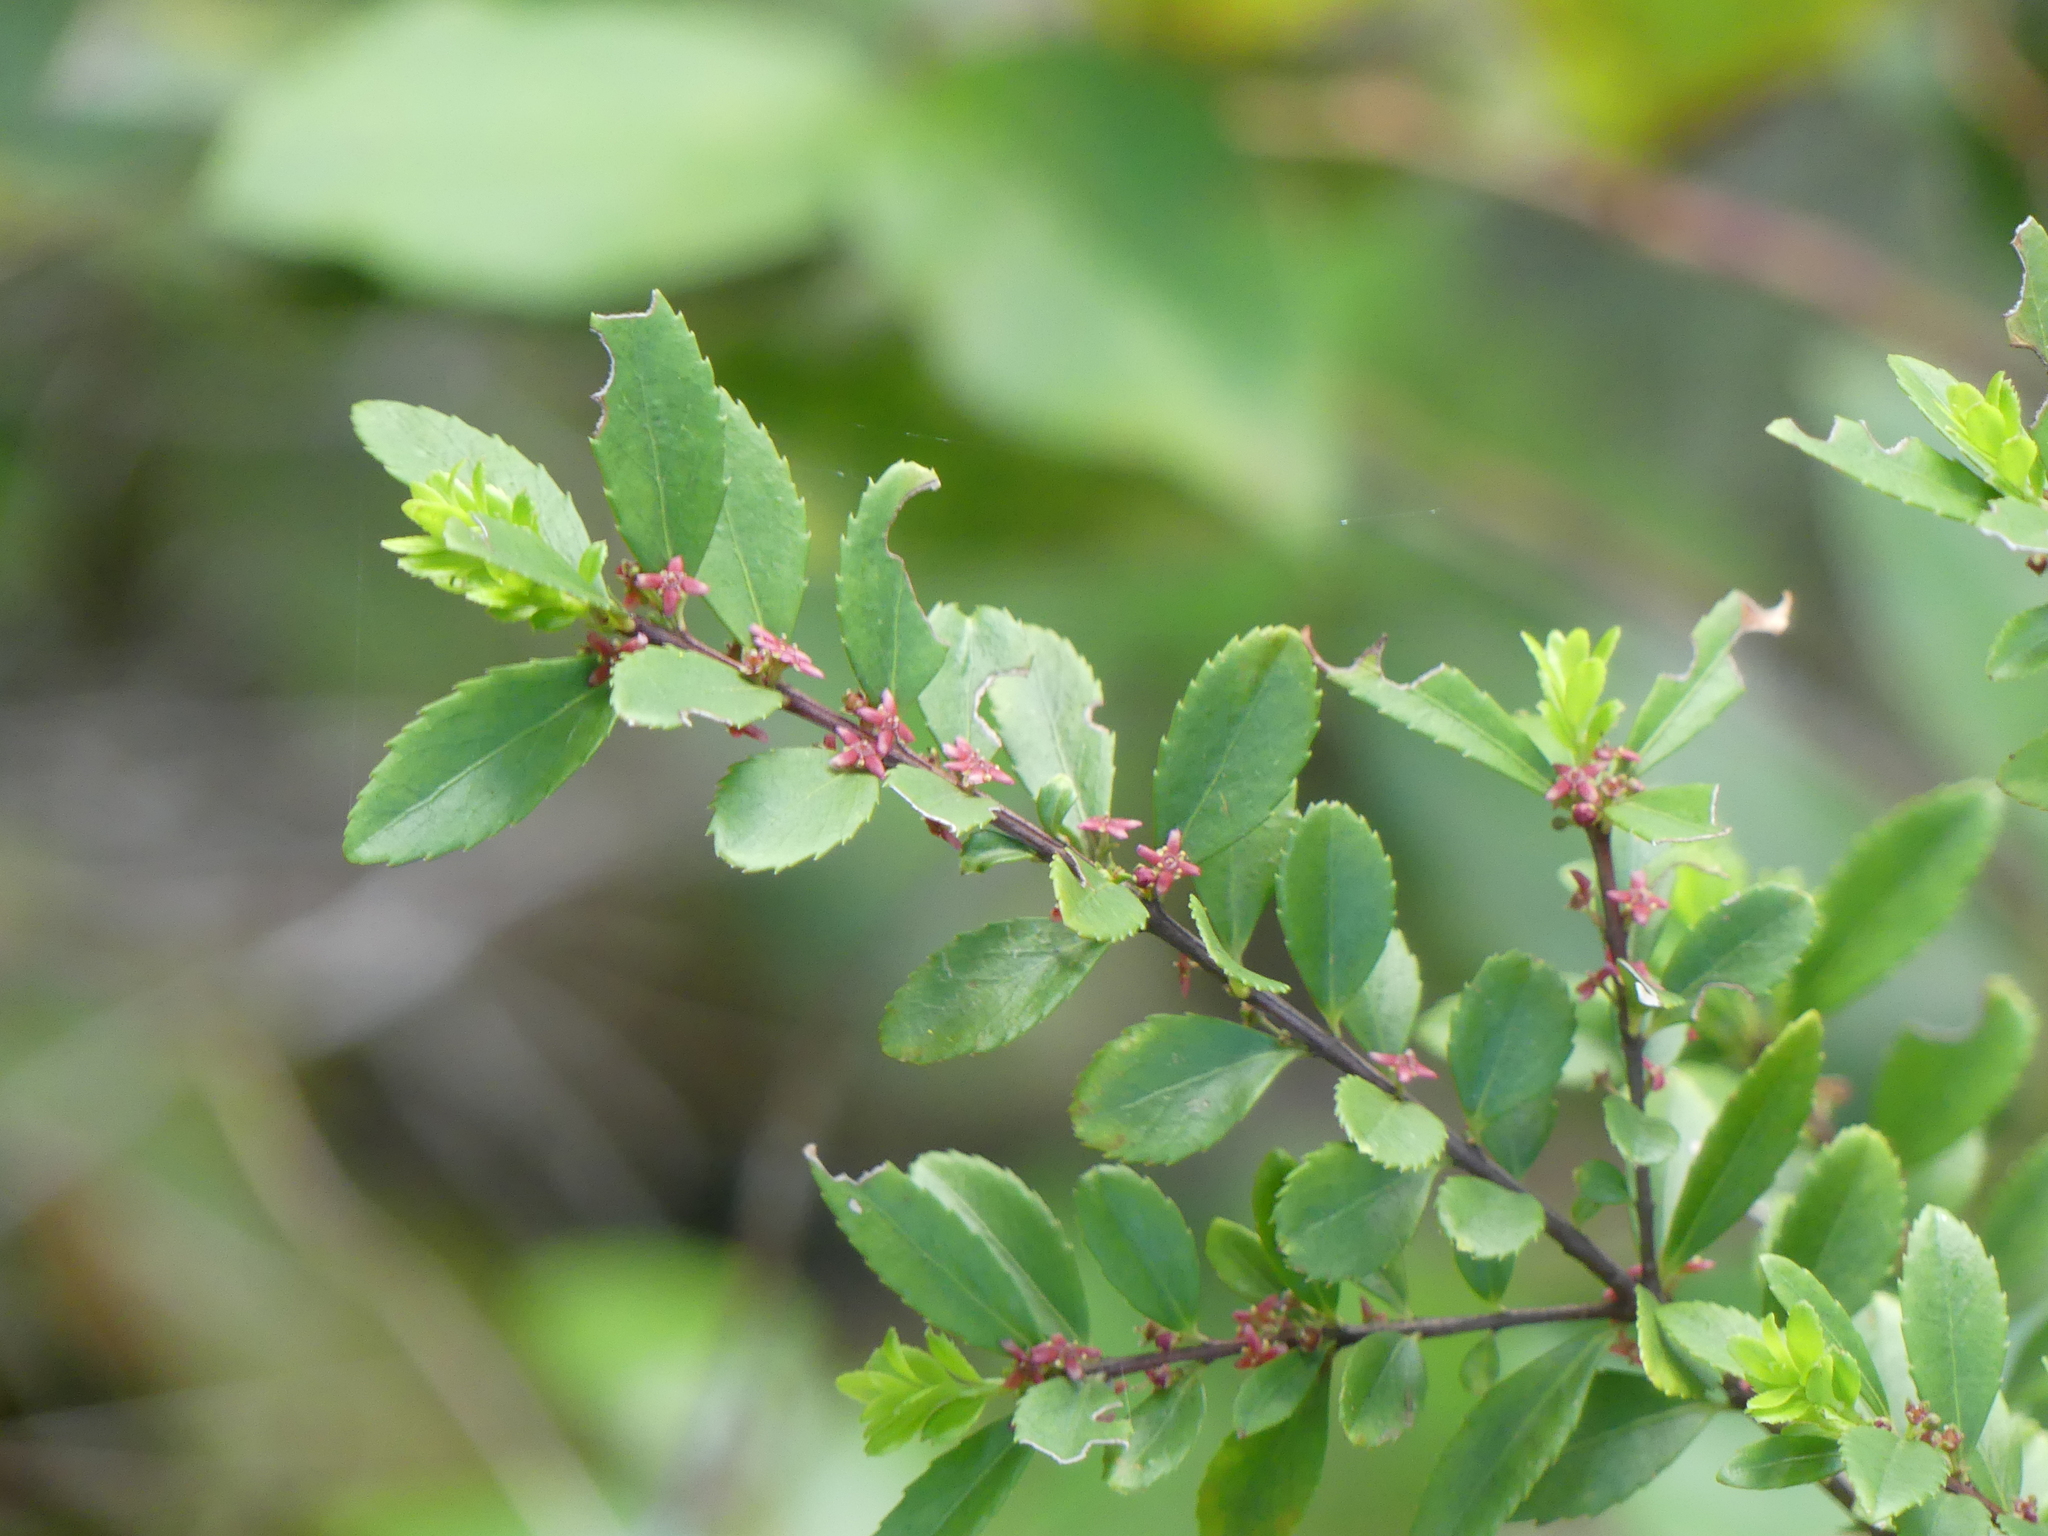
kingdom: Plantae
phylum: Tracheophyta
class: Magnoliopsida
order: Celastrales
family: Celastraceae
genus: Paxistima
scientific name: Paxistima myrsinites
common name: Mountain-lover
